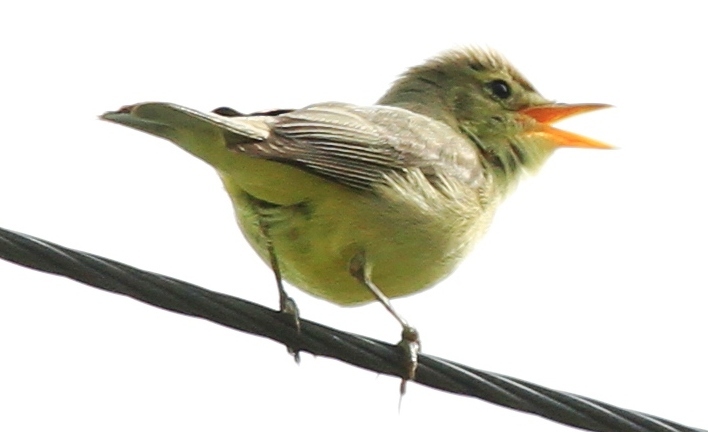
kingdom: Animalia
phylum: Chordata
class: Aves
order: Passeriformes
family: Acrocephalidae
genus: Hippolais
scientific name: Hippolais polyglotta
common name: Melodious warbler
